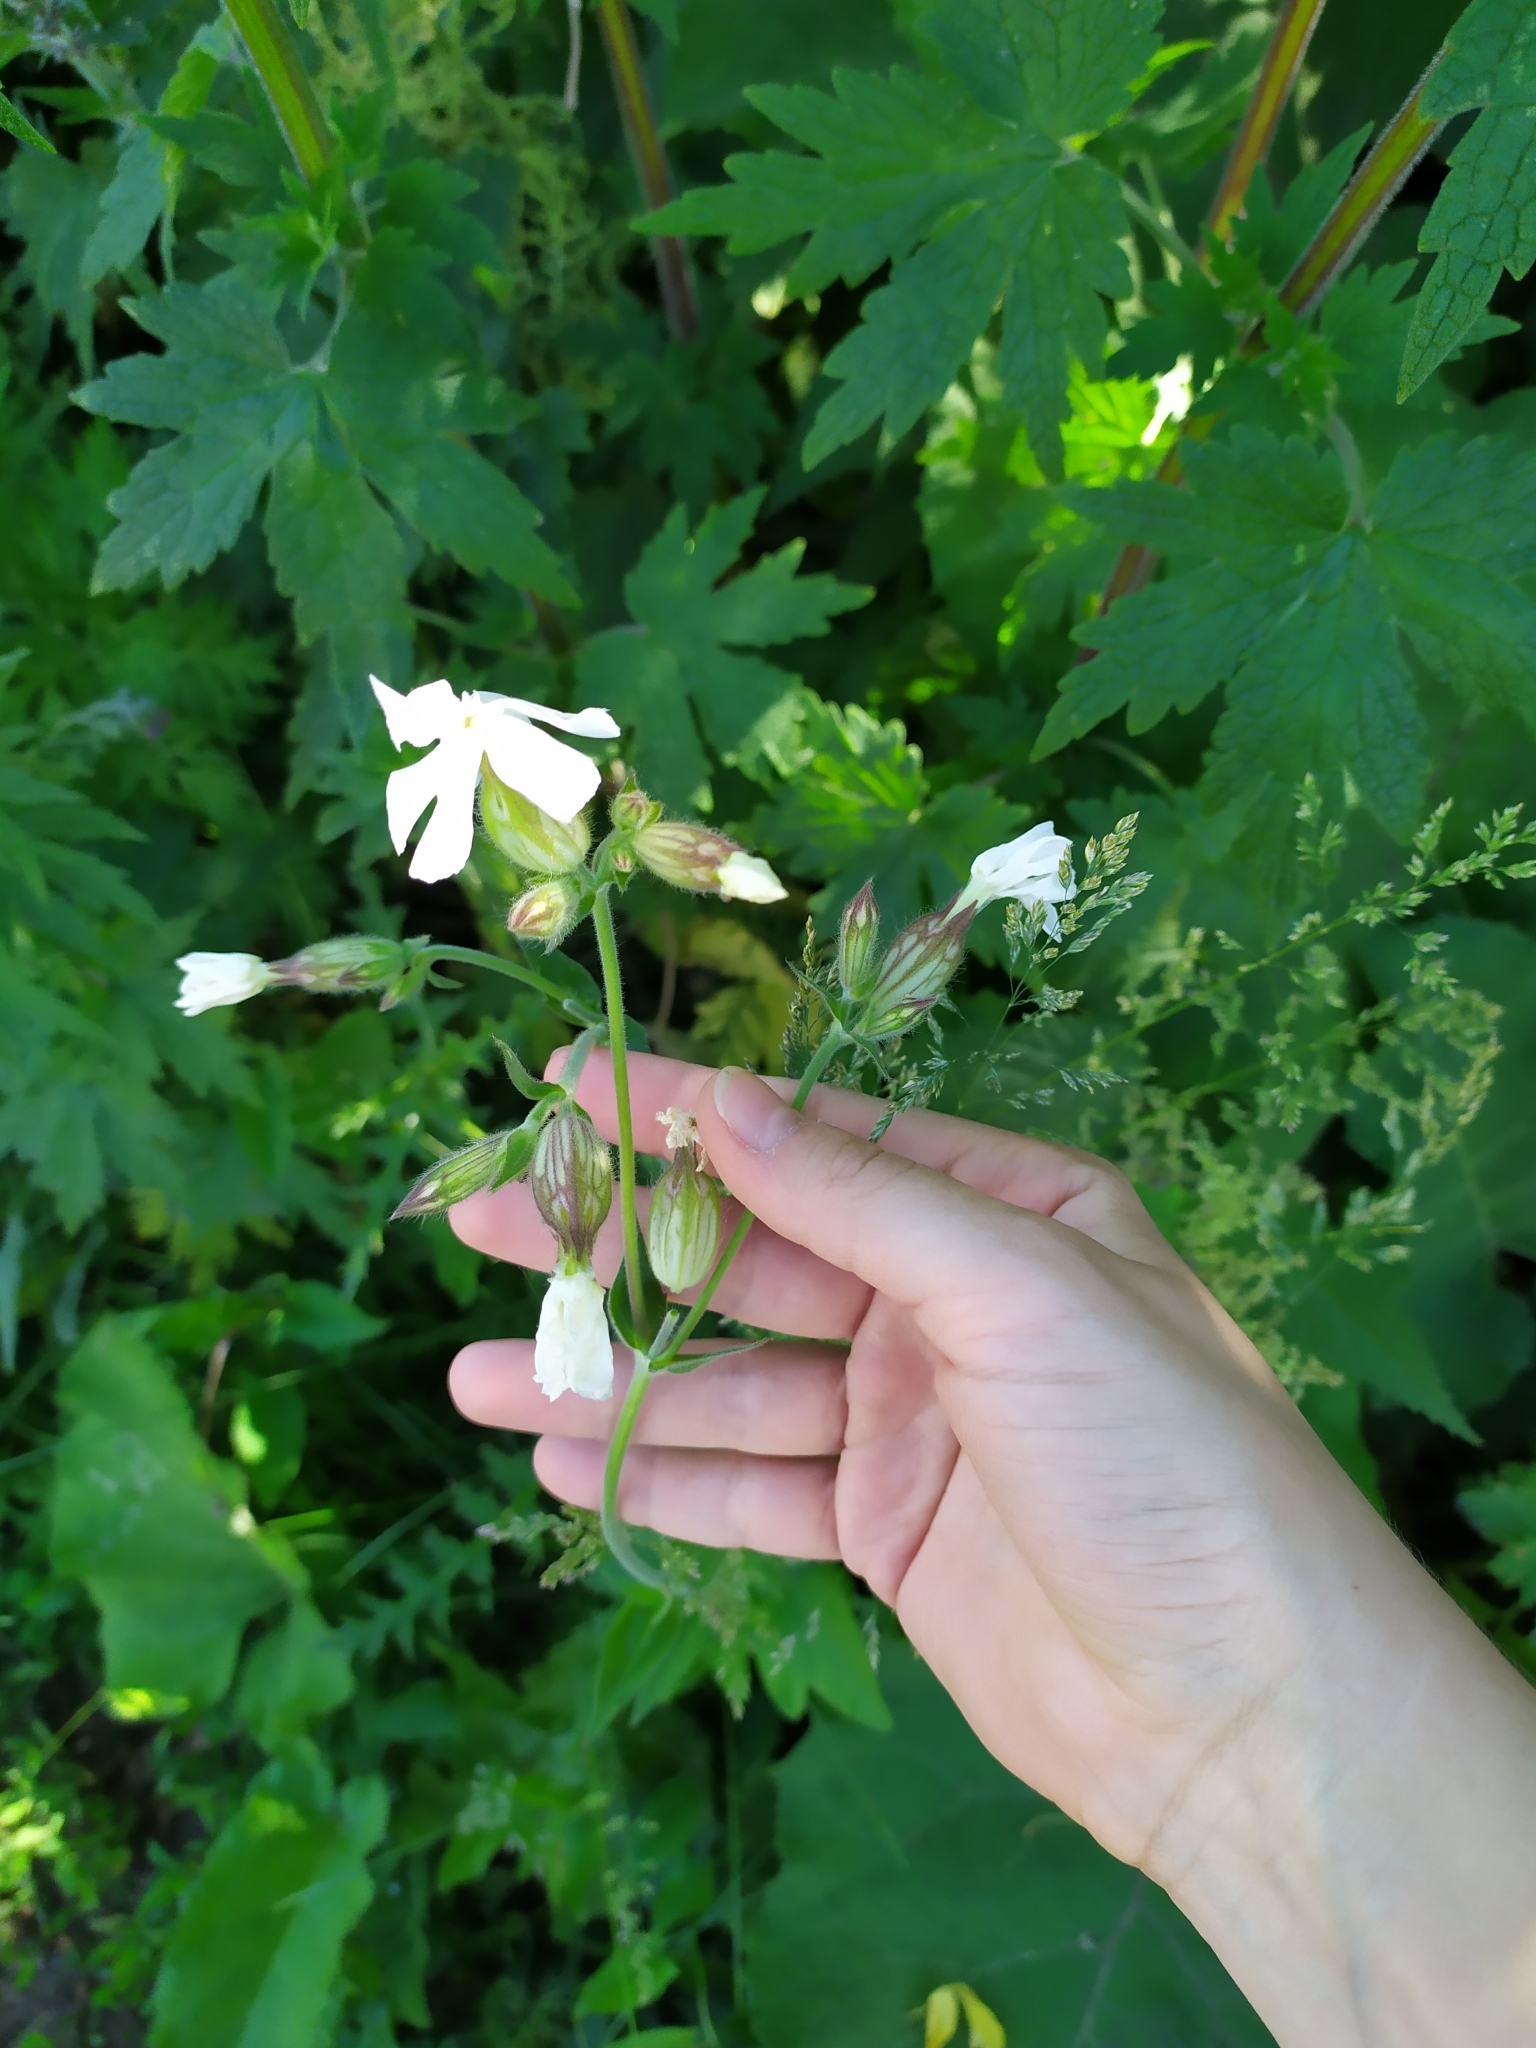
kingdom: Plantae
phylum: Tracheophyta
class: Magnoliopsida
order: Caryophyllales
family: Caryophyllaceae
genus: Silene
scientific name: Silene latifolia
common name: White campion
